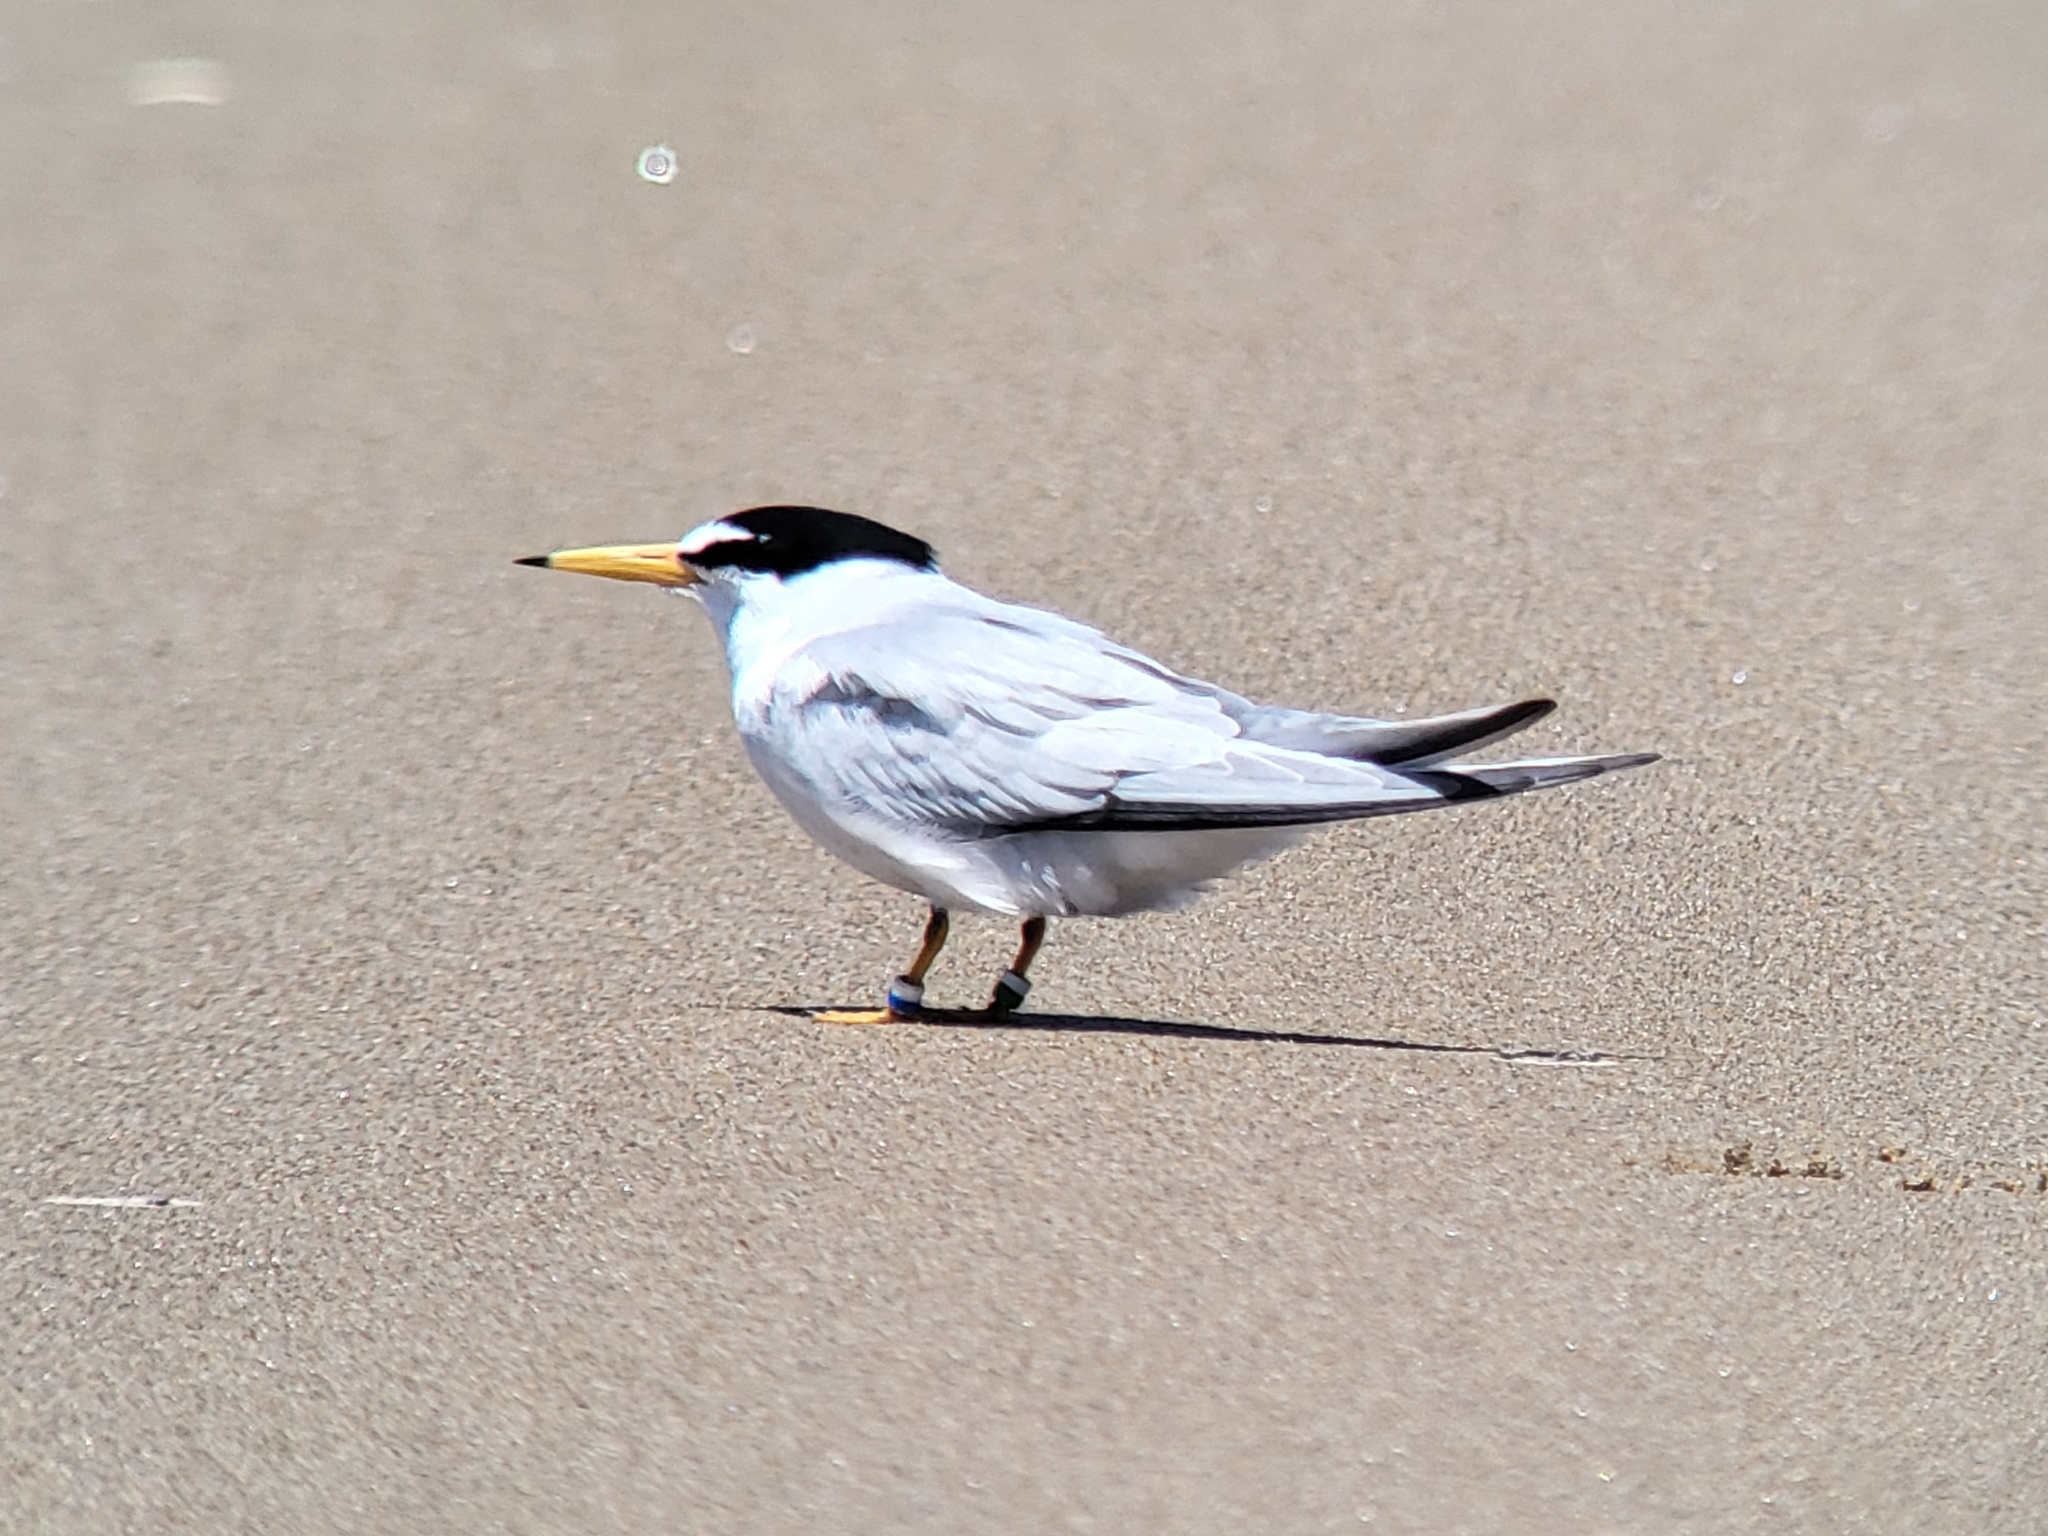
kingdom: Animalia
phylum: Chordata
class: Aves
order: Charadriiformes
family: Laridae
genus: Sternula
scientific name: Sternula antillarum
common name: Least tern
